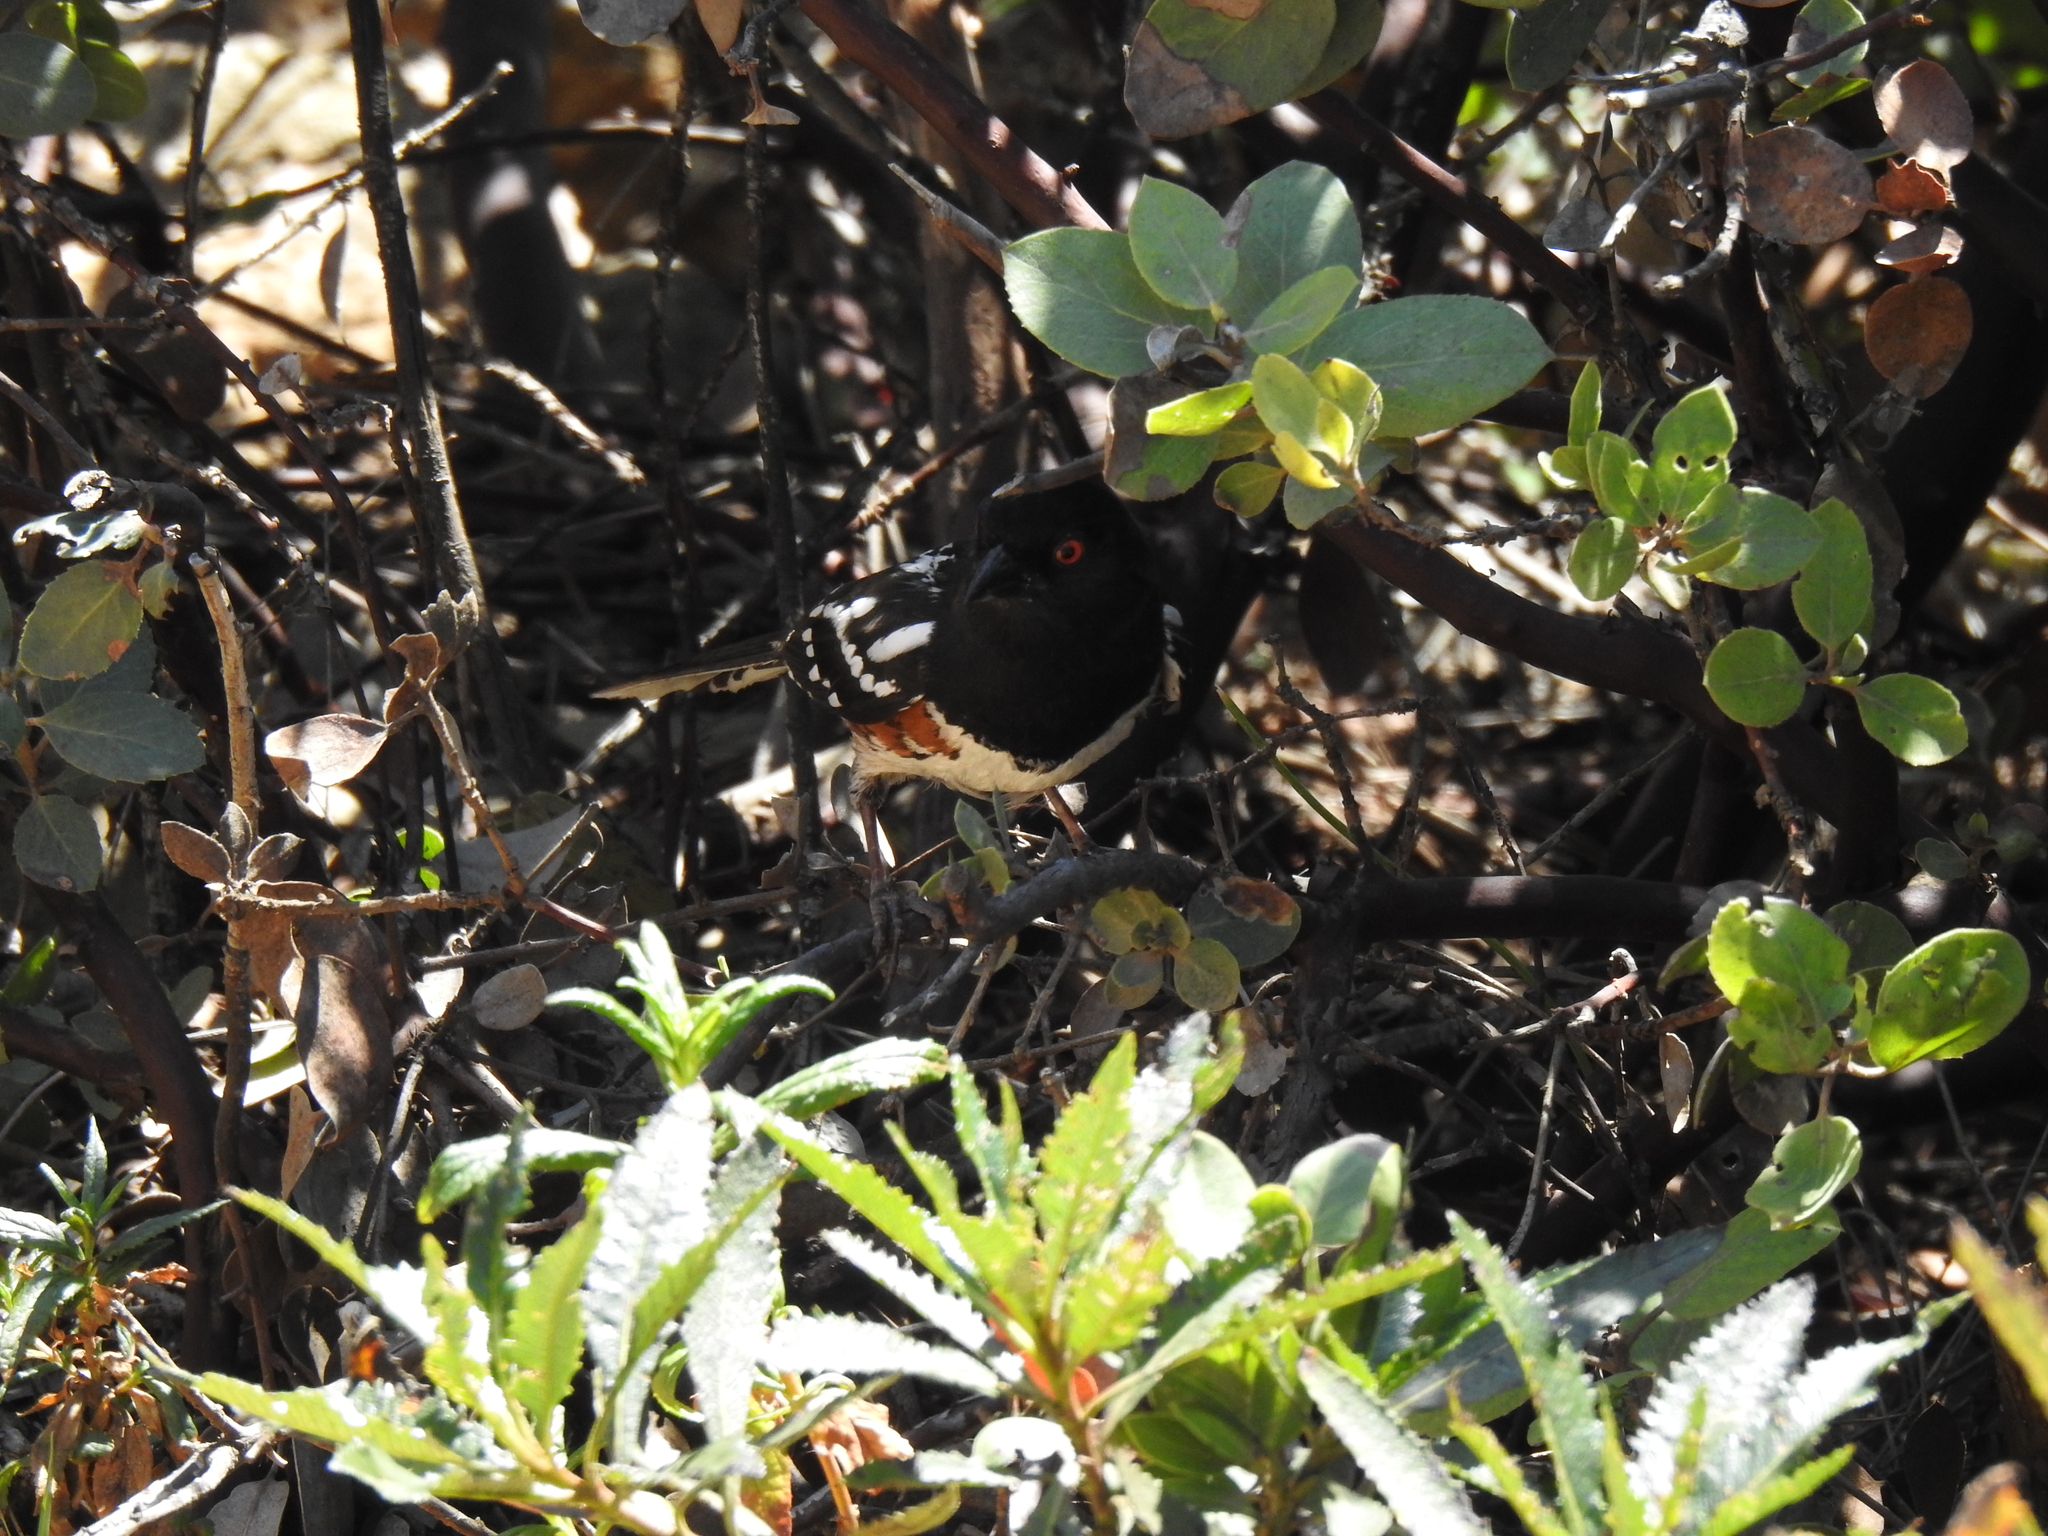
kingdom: Animalia
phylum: Chordata
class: Aves
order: Passeriformes
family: Passerellidae
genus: Pipilo
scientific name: Pipilo maculatus
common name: Spotted towhee
